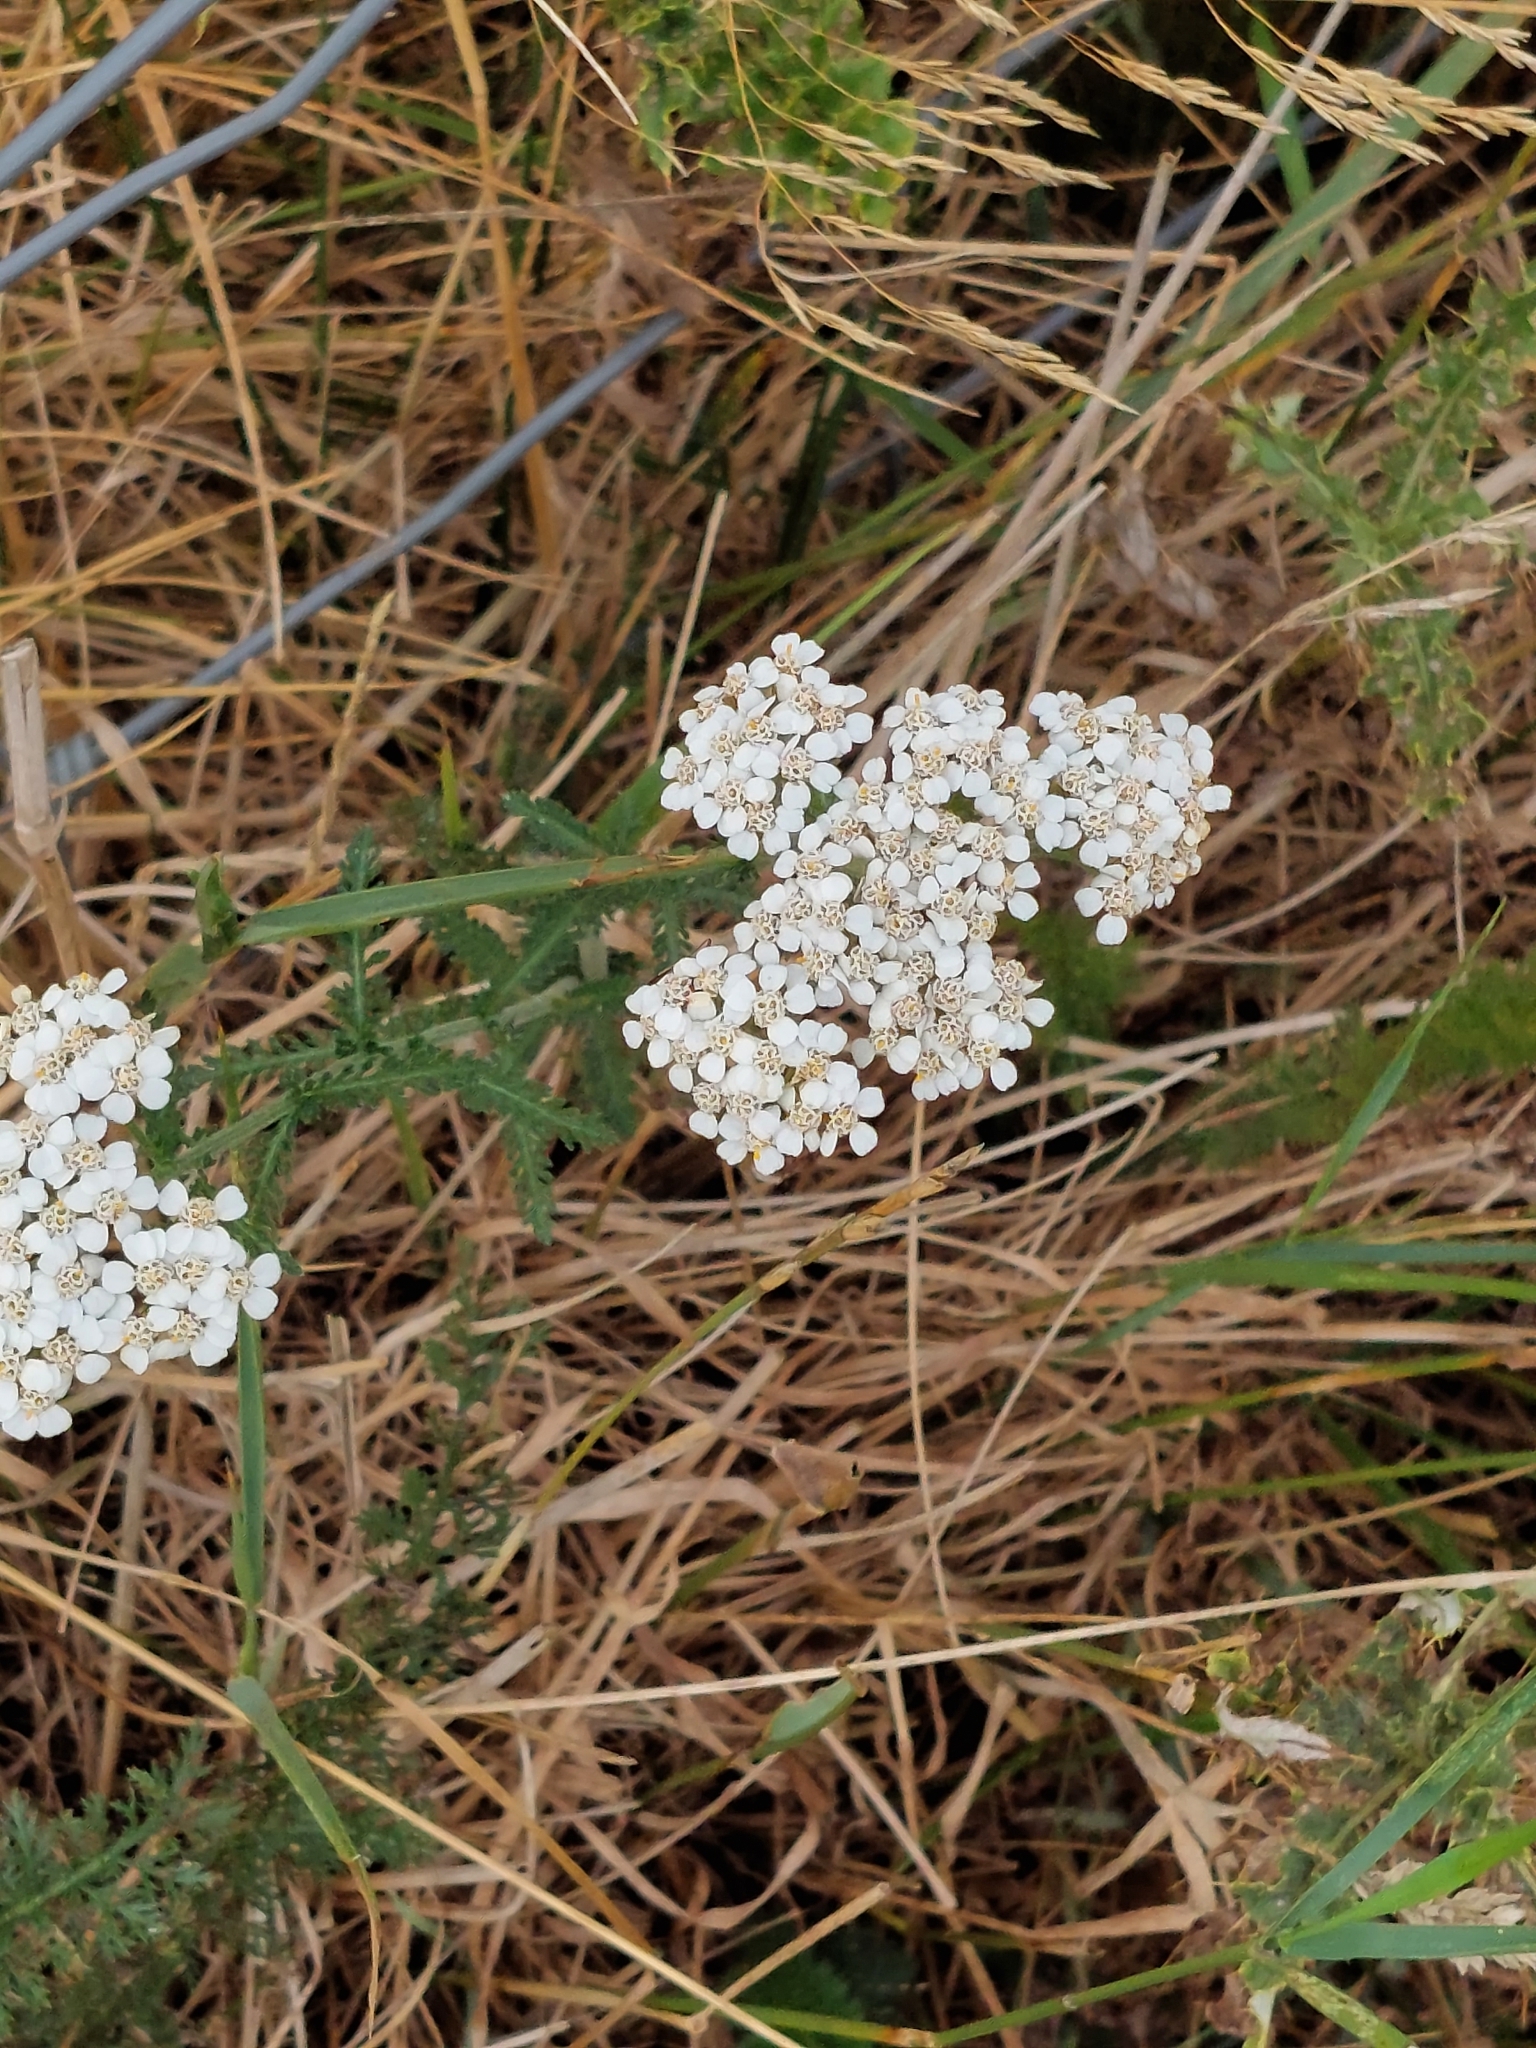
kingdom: Plantae
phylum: Tracheophyta
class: Magnoliopsida
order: Asterales
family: Asteraceae
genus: Achillea
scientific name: Achillea millefolium
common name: Yarrow
